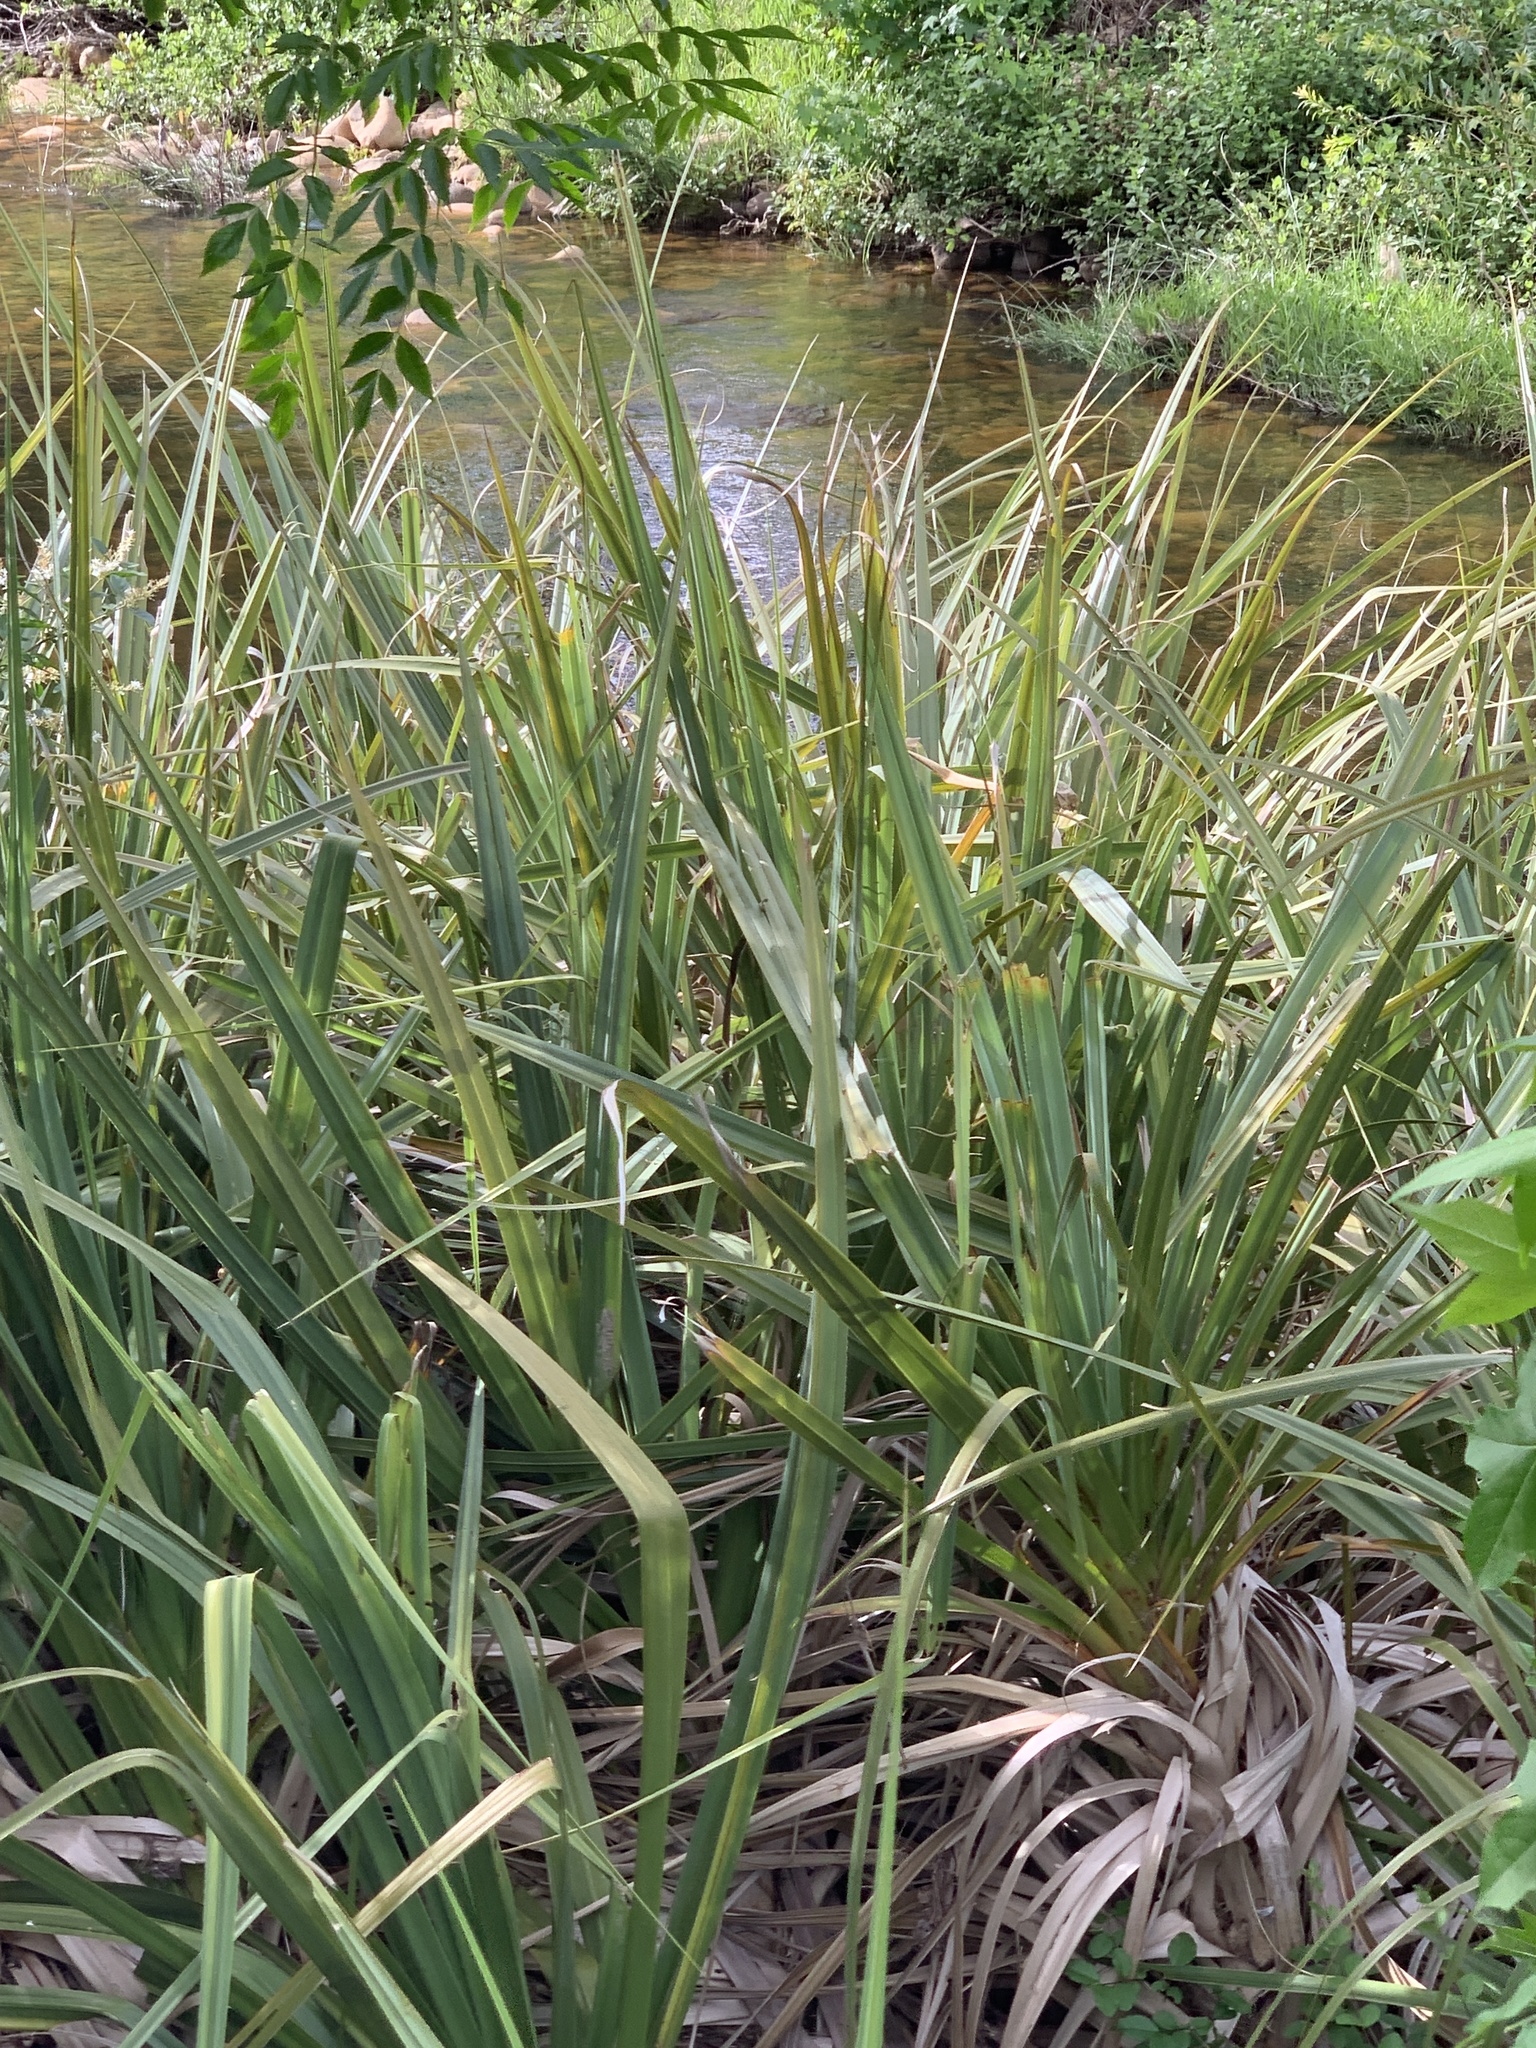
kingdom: Plantae
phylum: Tracheophyta
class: Liliopsida
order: Poales
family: Thurniaceae
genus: Prionium
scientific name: Prionium serratum
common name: Palmiet
